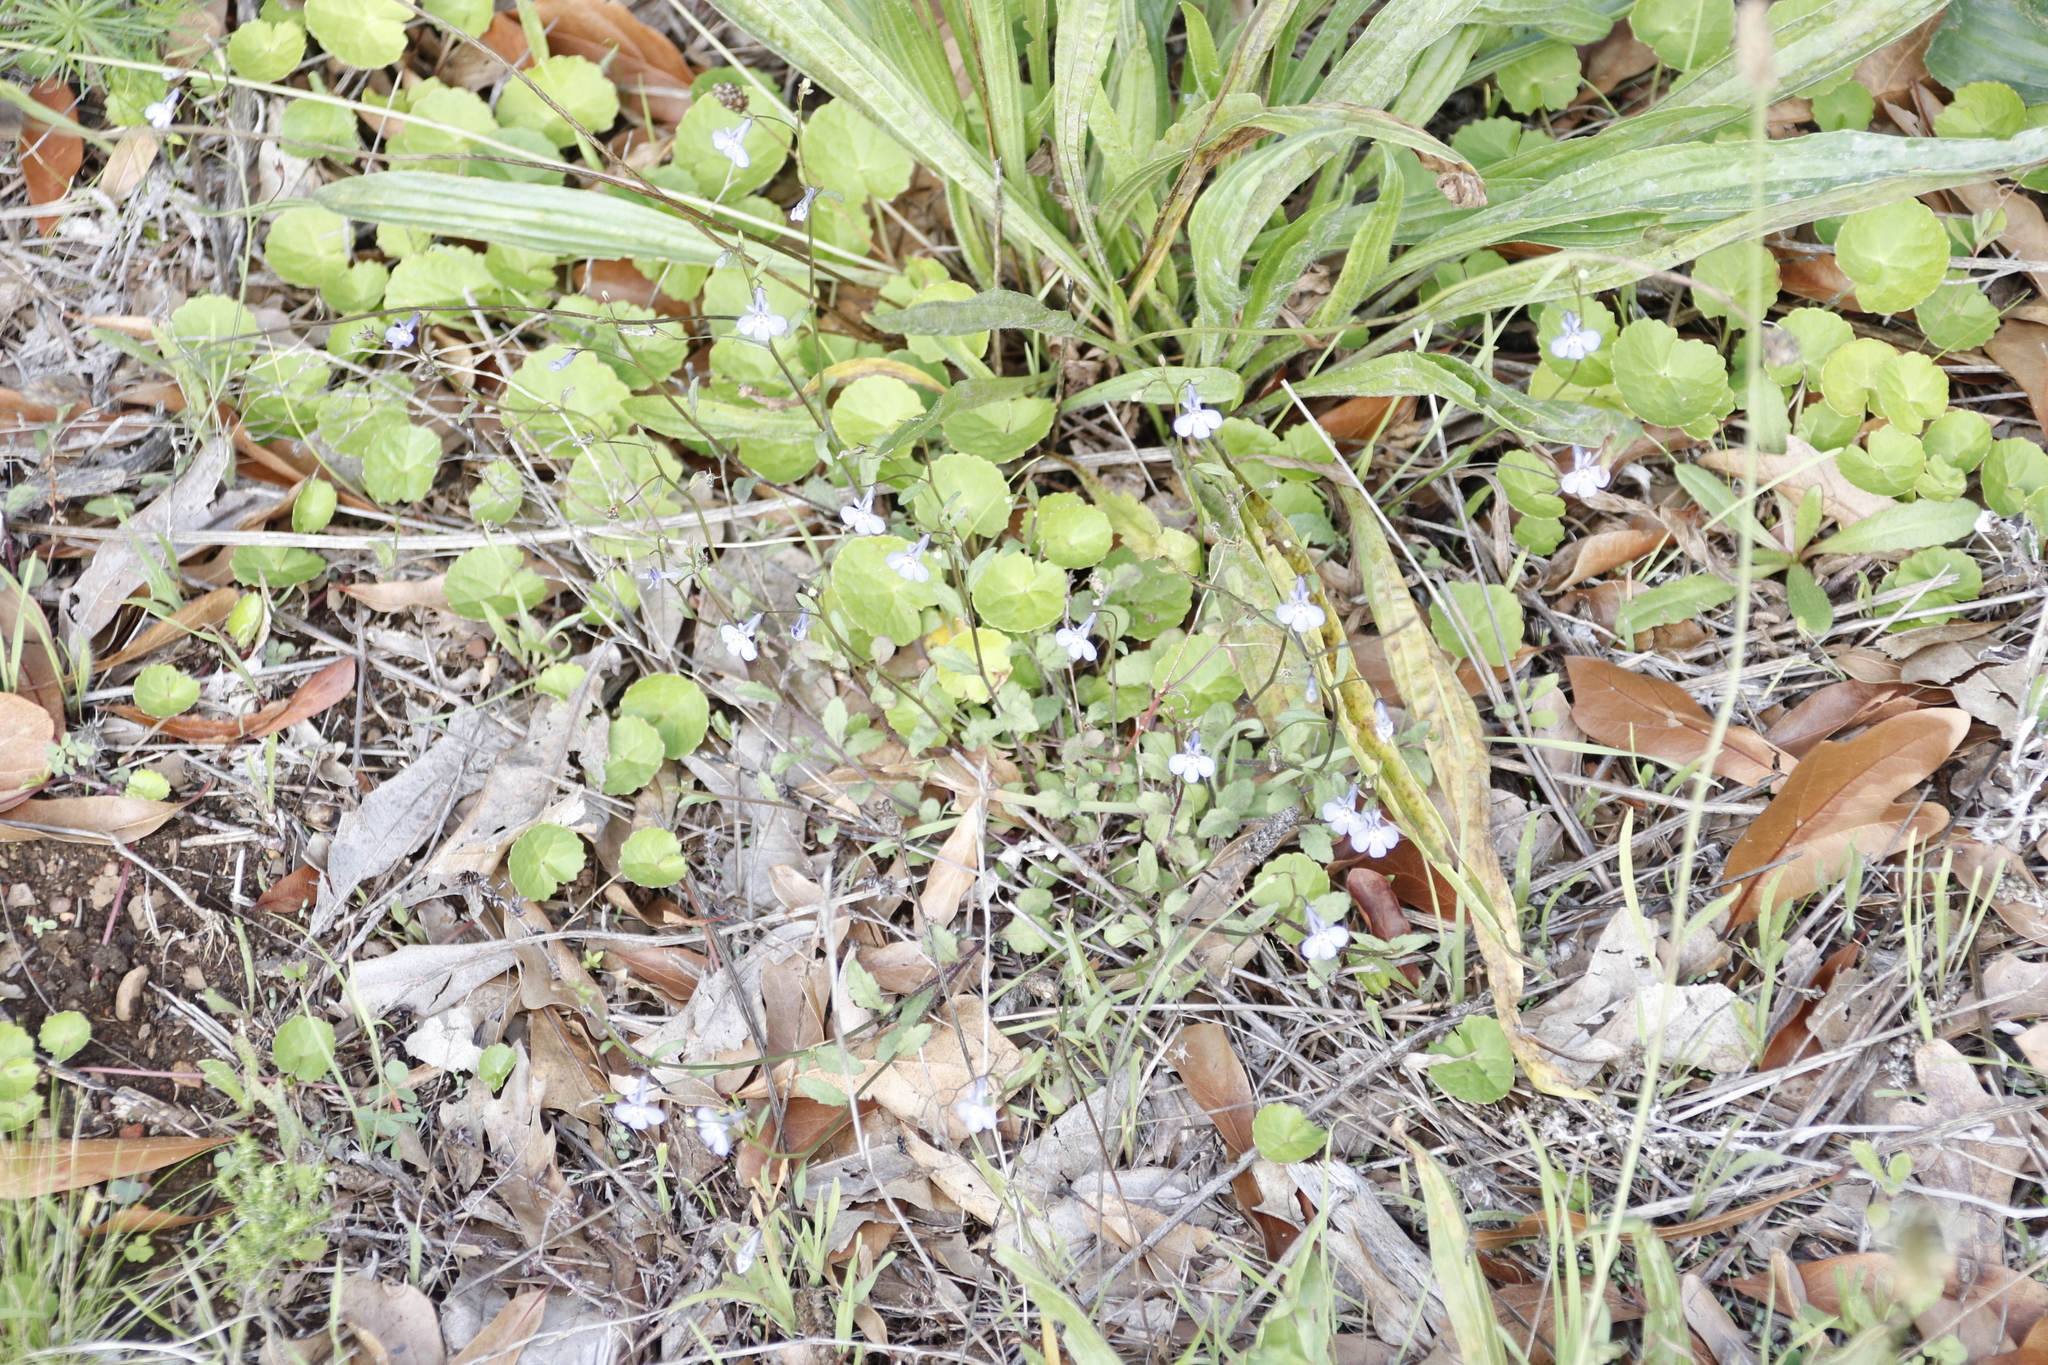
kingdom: Plantae
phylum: Tracheophyta
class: Magnoliopsida
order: Asterales
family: Campanulaceae
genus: Lobelia
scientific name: Lobelia erinus
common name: Edging lobelia
